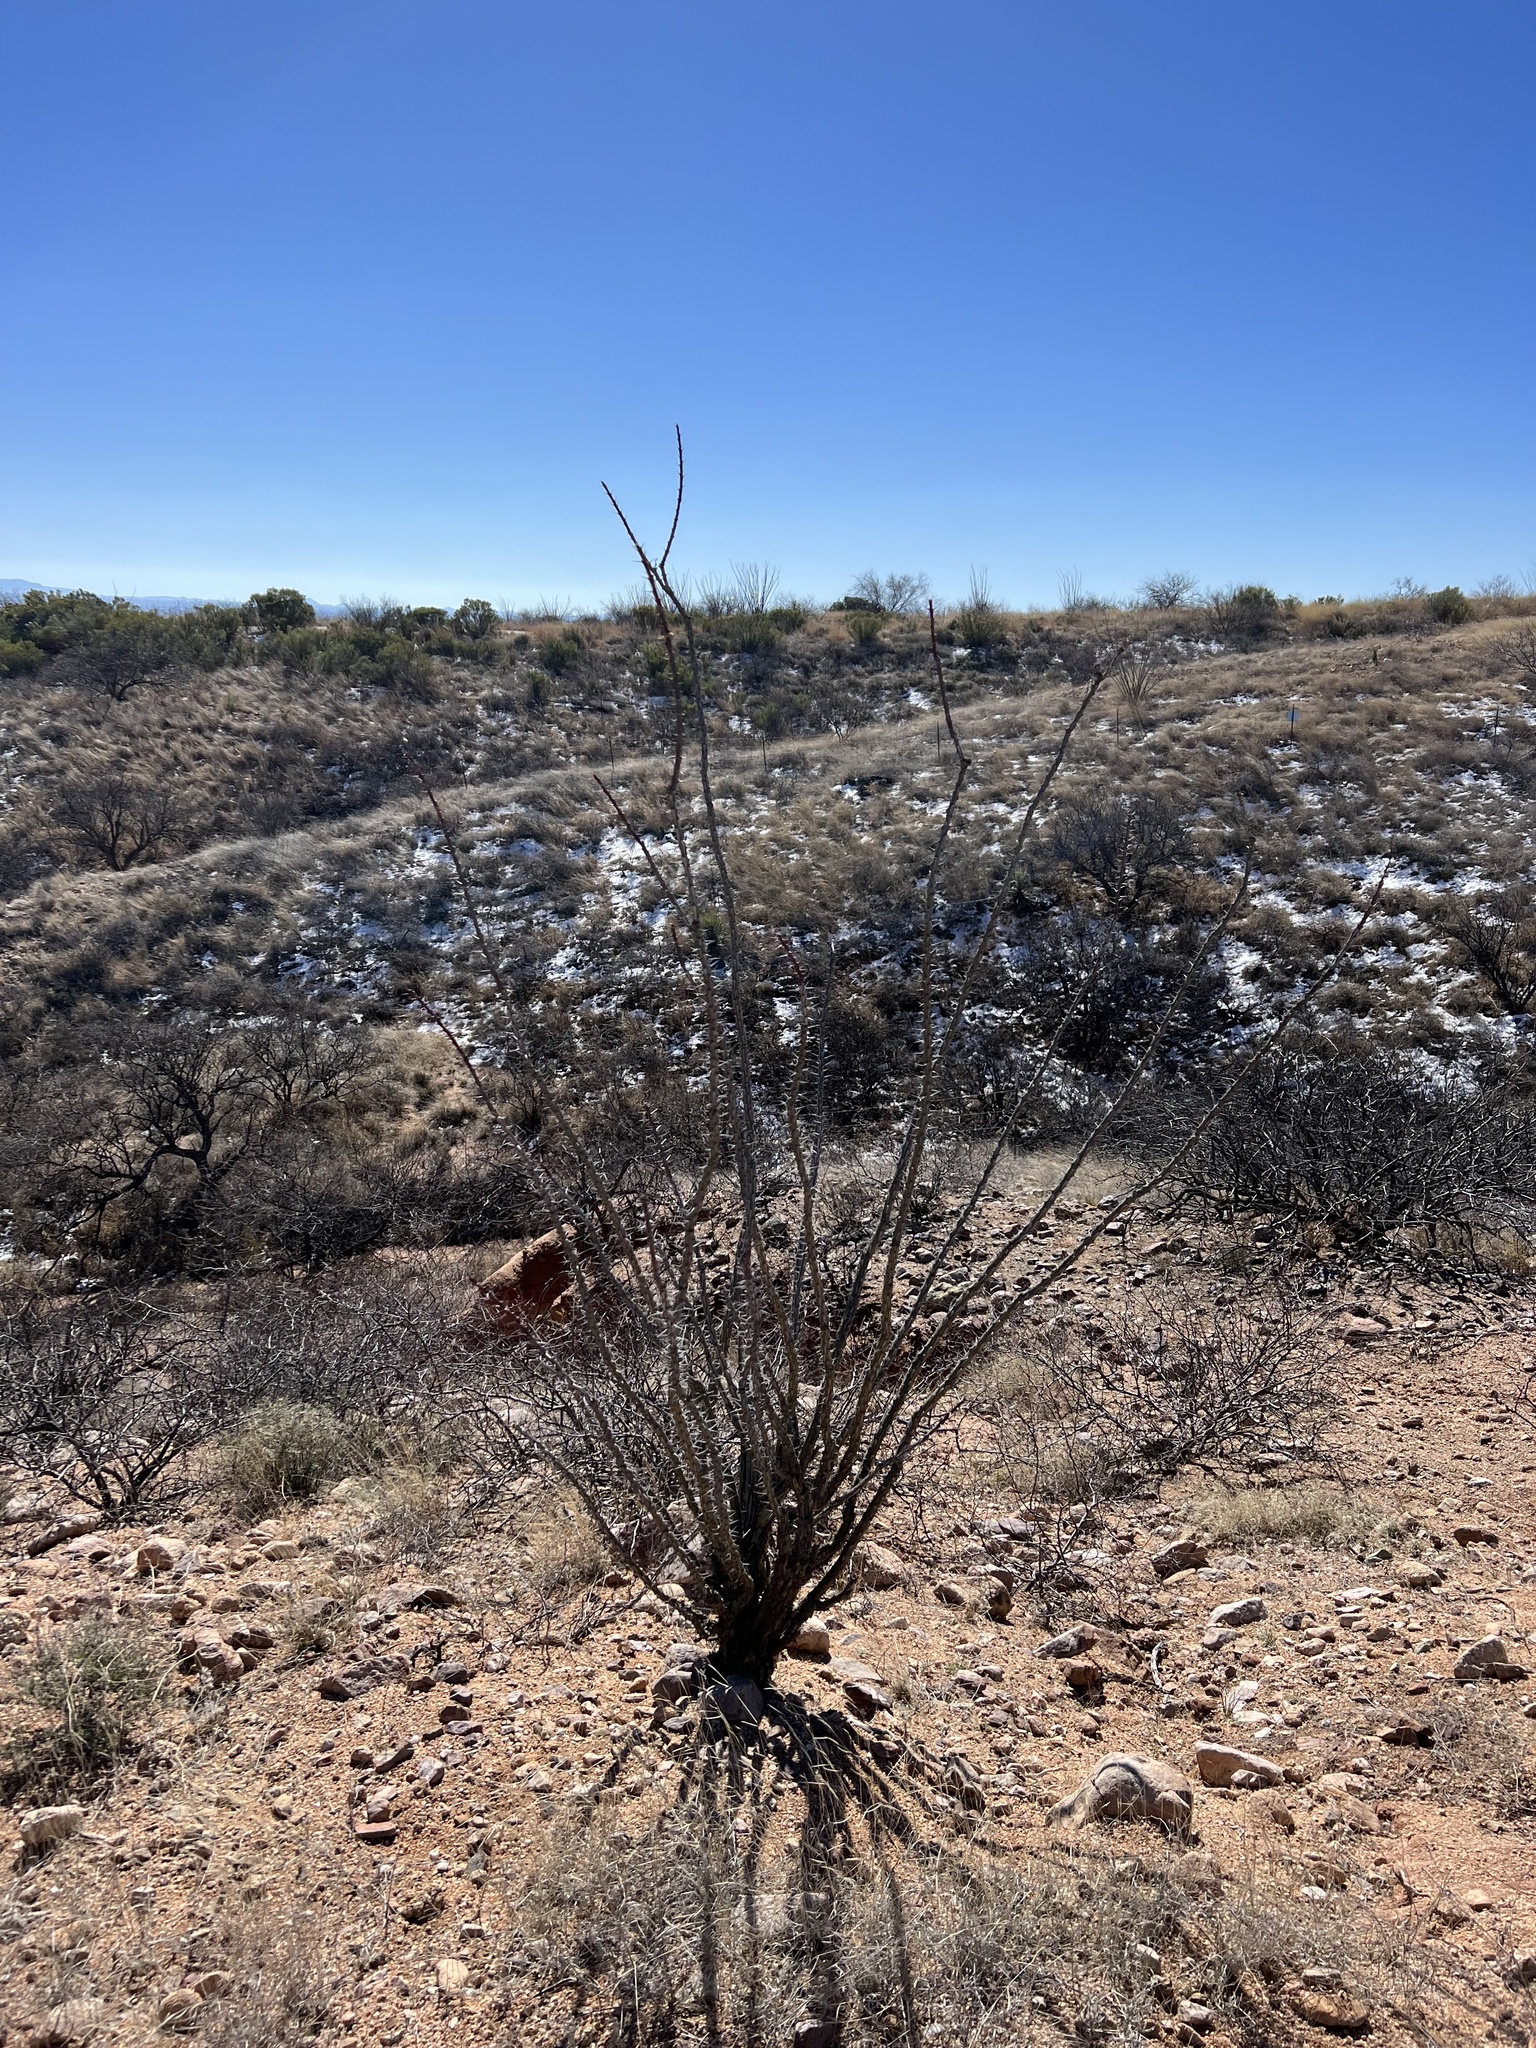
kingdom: Plantae
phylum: Tracheophyta
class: Magnoliopsida
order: Ericales
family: Fouquieriaceae
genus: Fouquieria
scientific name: Fouquieria splendens
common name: Vine-cactus
